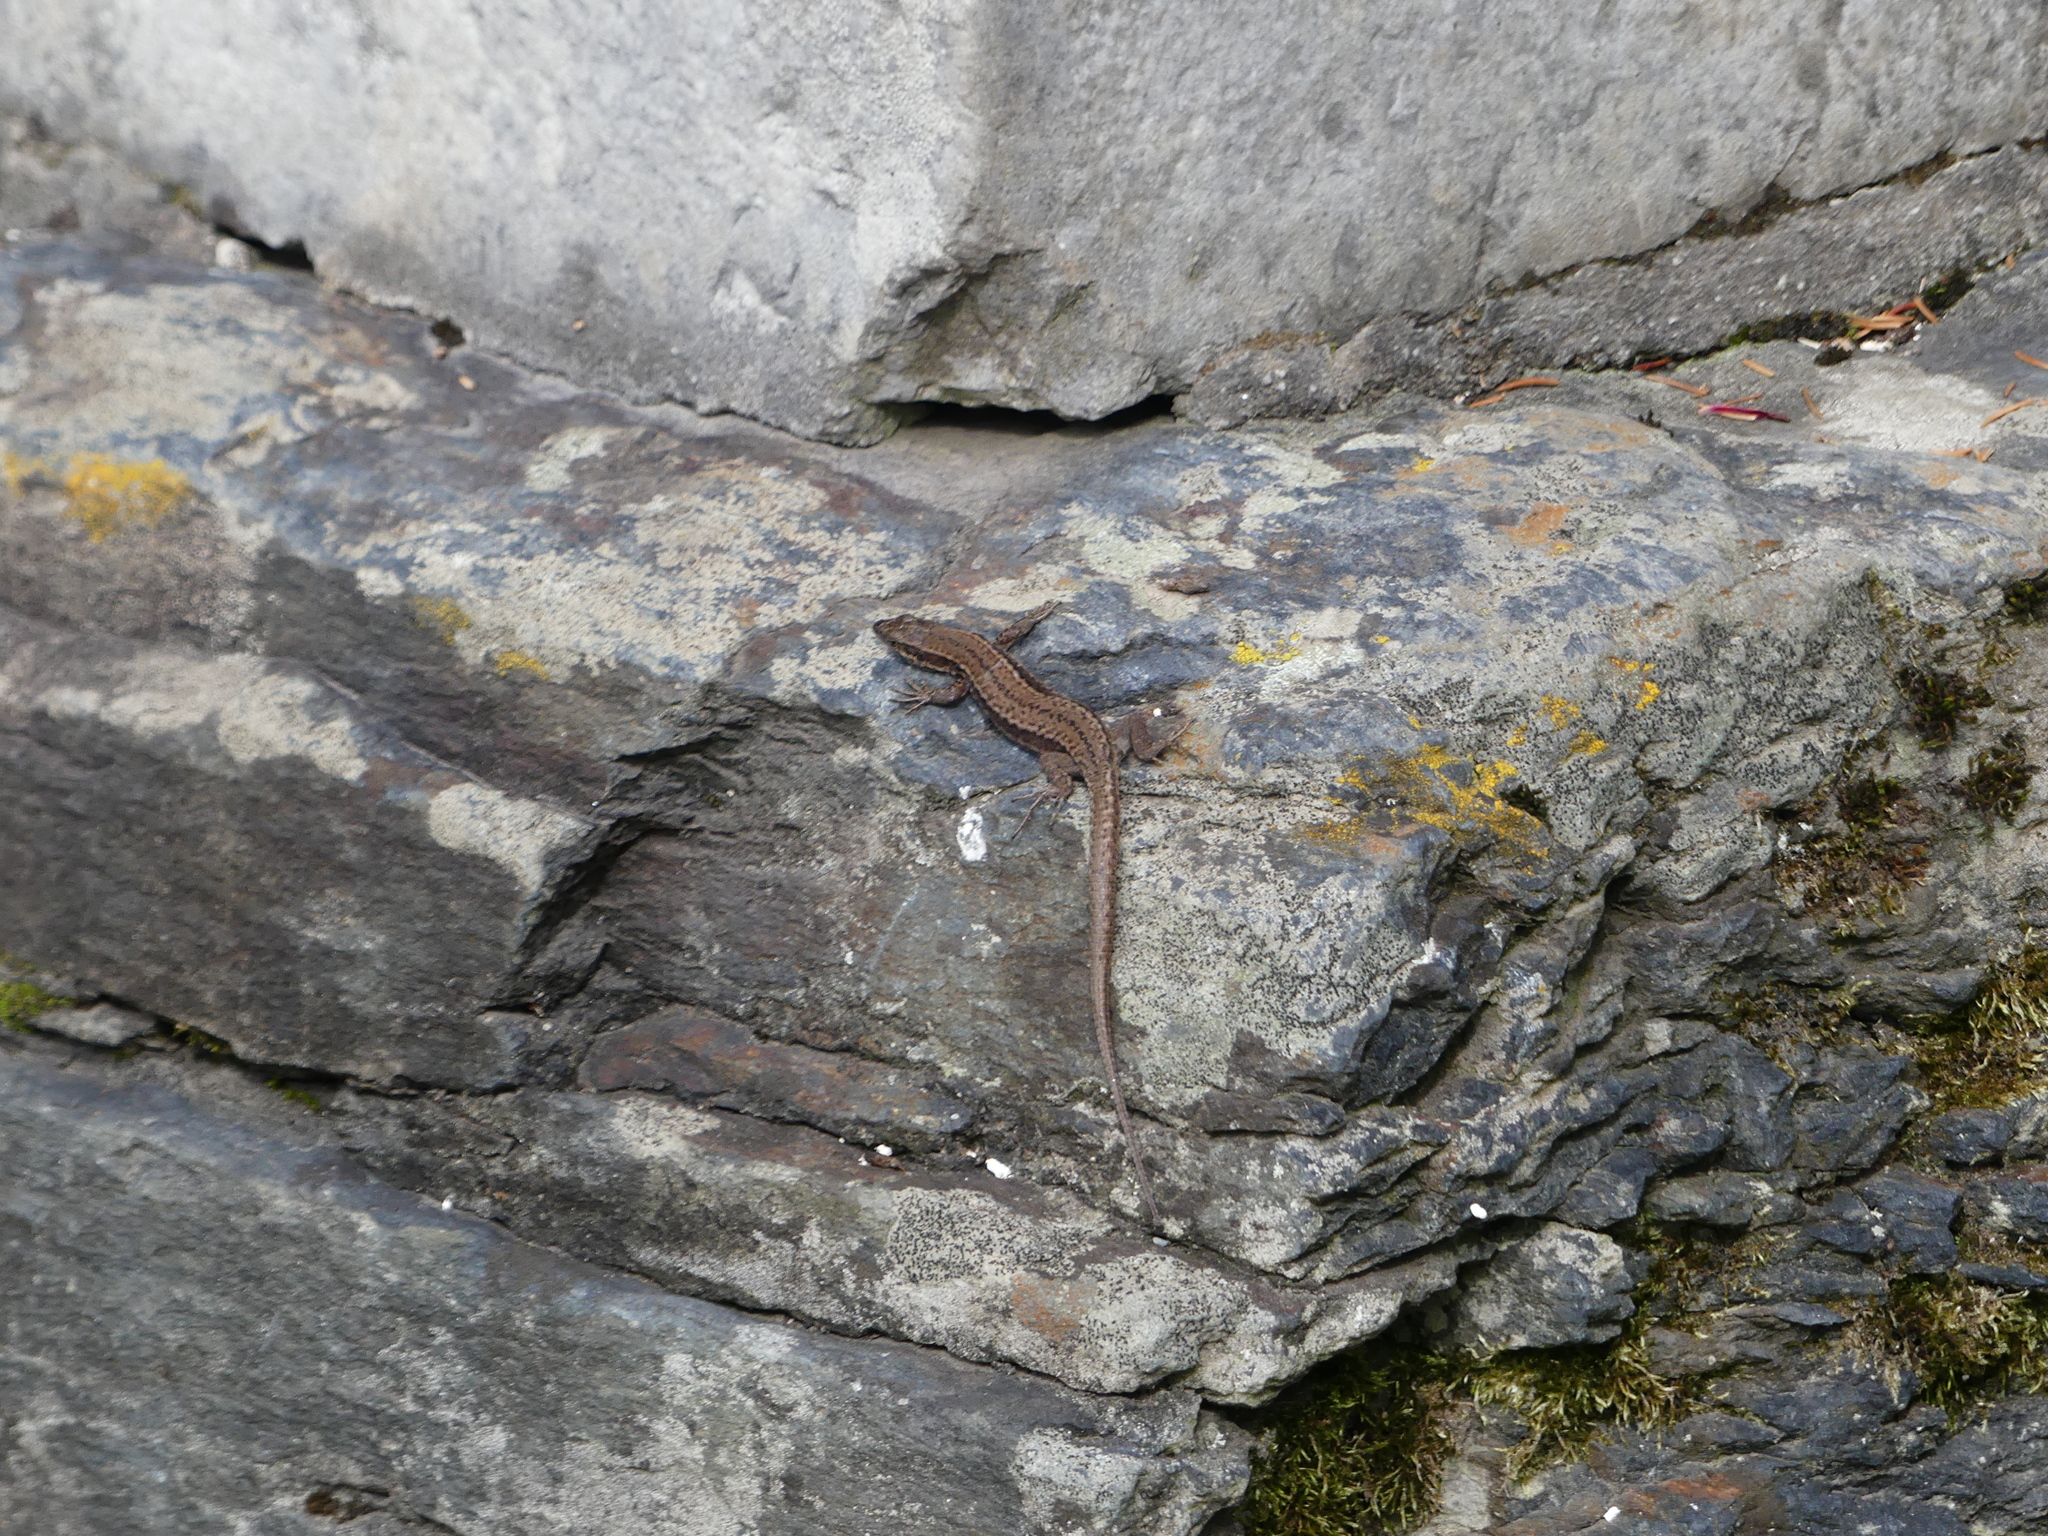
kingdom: Animalia
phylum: Chordata
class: Squamata
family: Lacertidae
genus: Podarcis
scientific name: Podarcis muralis
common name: Common wall lizard
